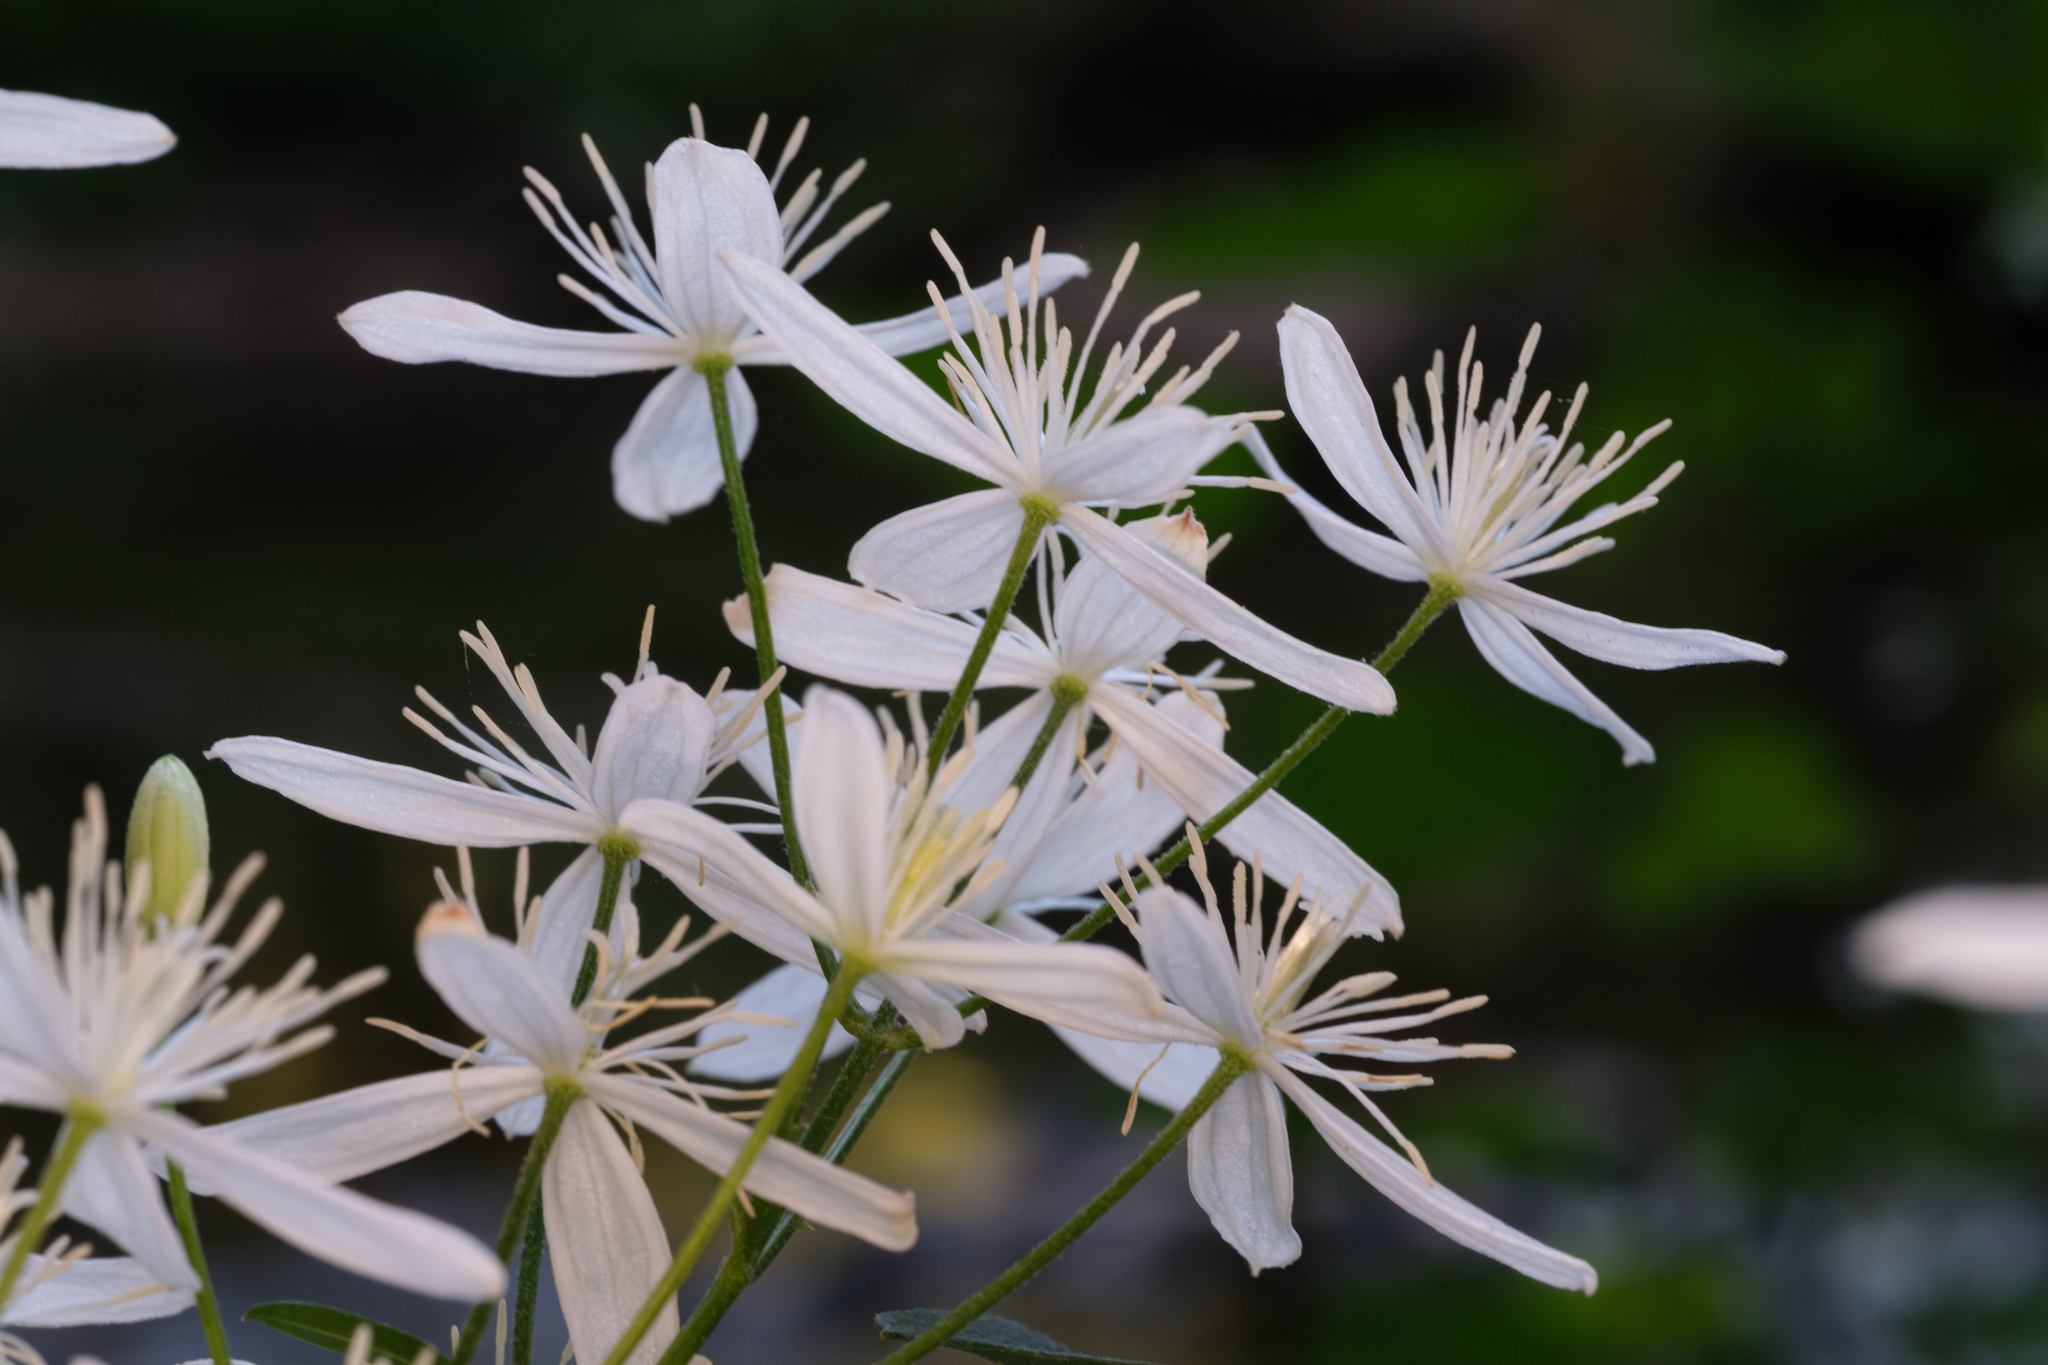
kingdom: Plantae
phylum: Tracheophyta
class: Magnoliopsida
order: Ranunculales
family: Ranunculaceae
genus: Clematis
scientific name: Clematis terniflora
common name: Sweet autumn clematis
